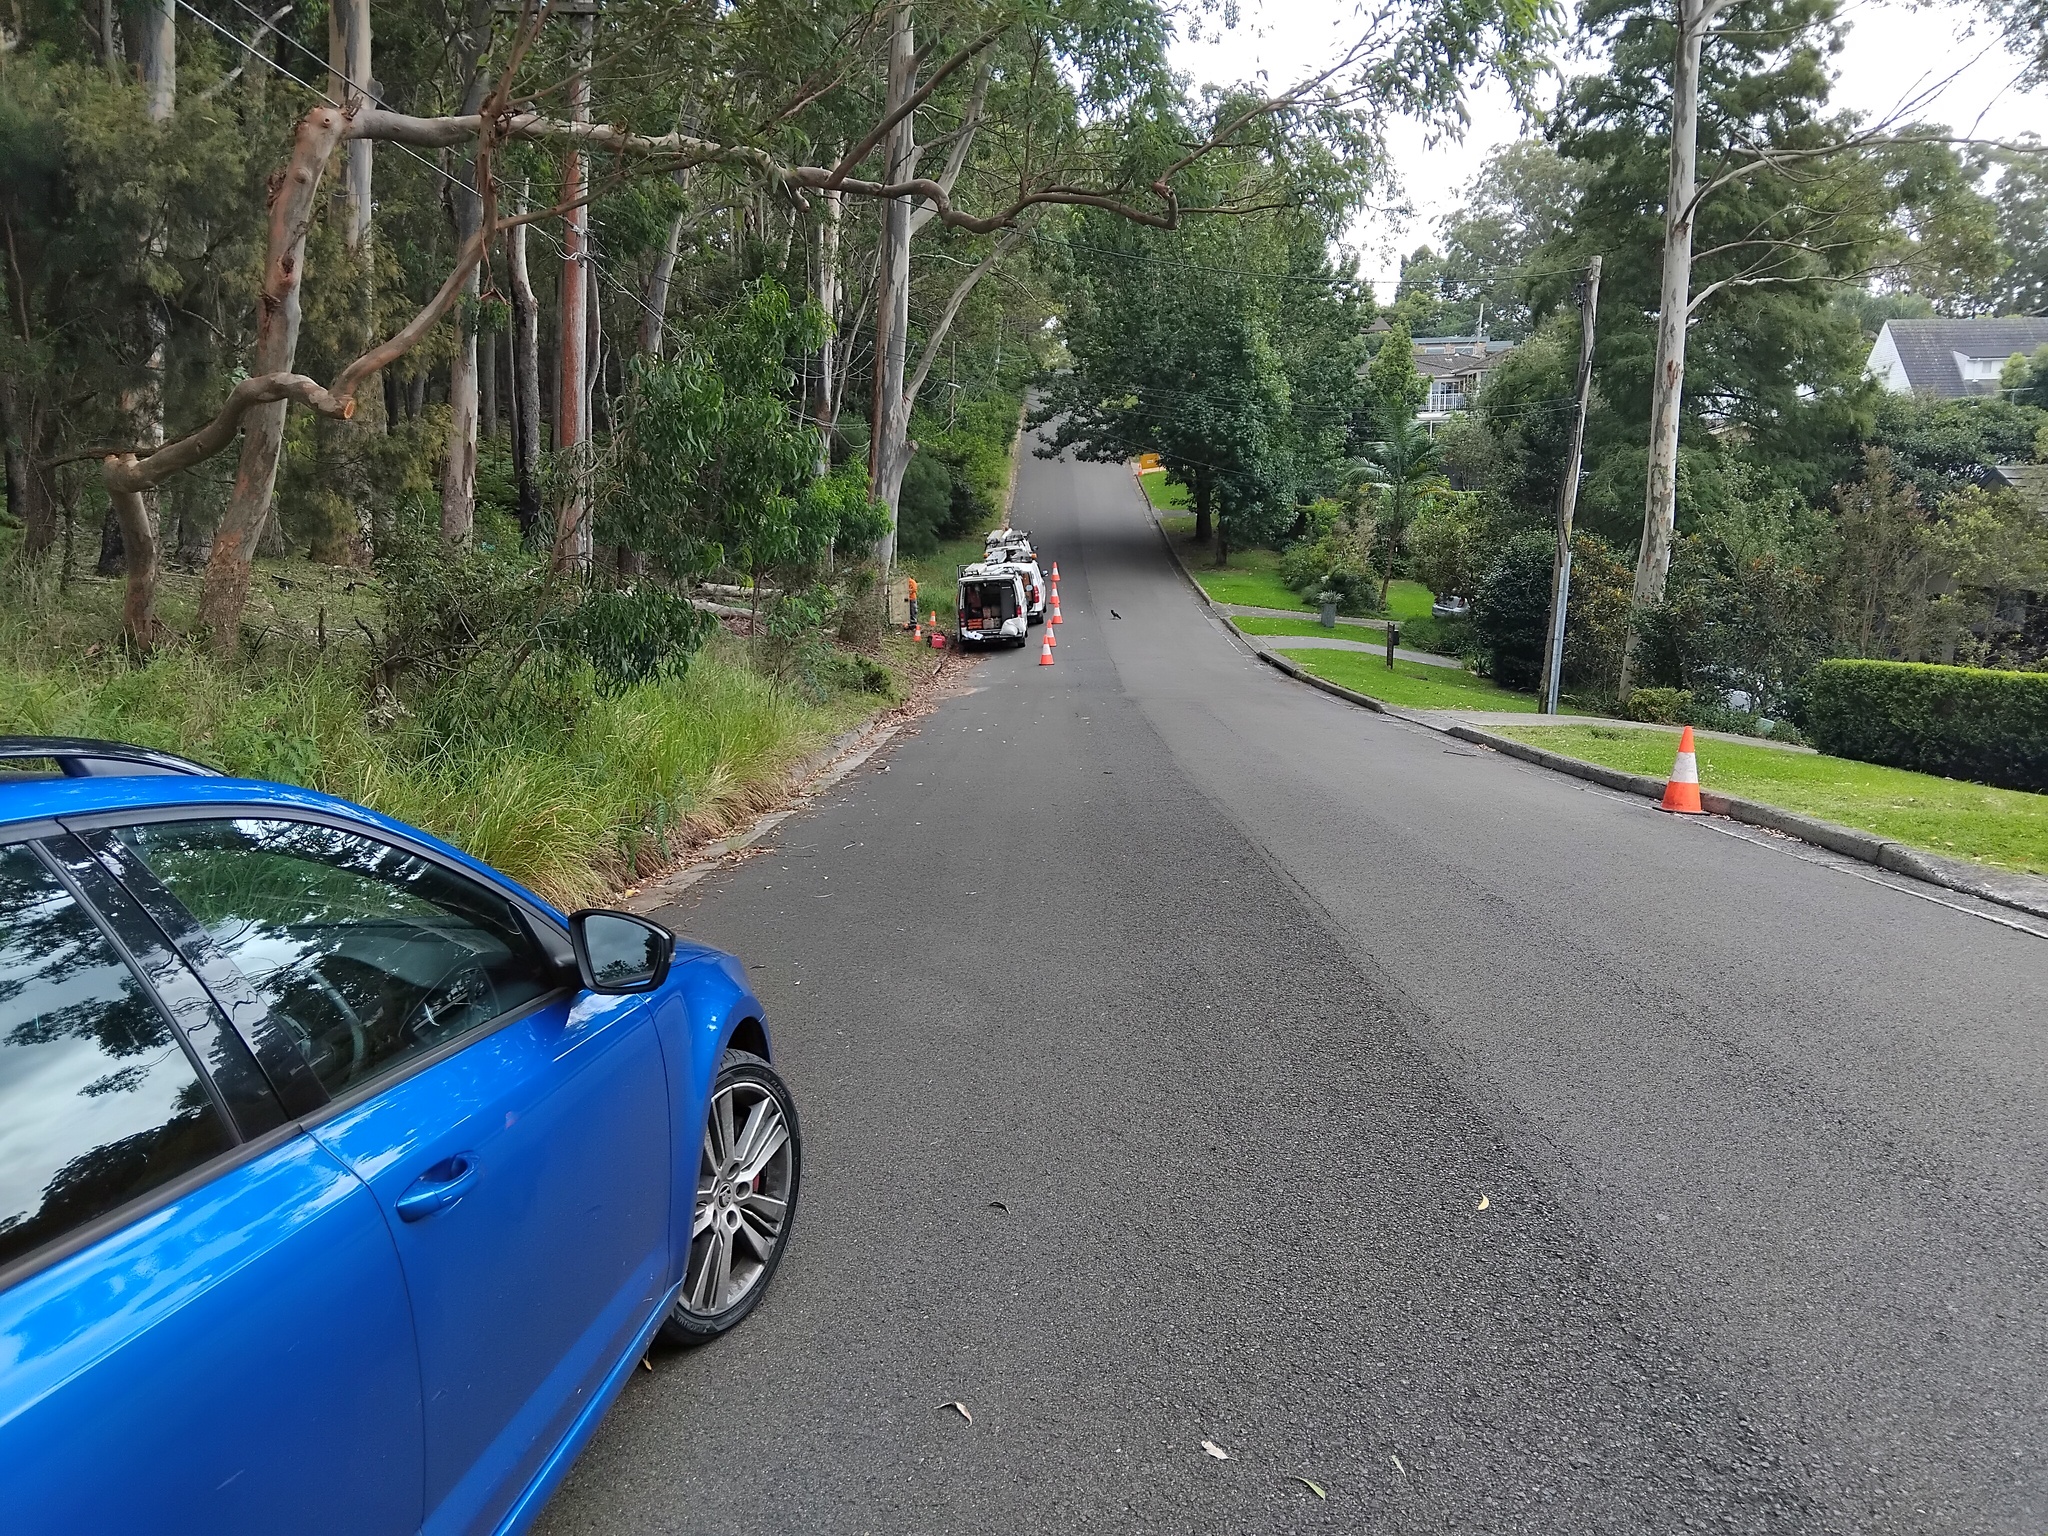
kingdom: Animalia
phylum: Chordata
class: Aves
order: Passeriformes
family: Corvidae
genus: Corvus
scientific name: Corvus coronoides
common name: Australian raven
